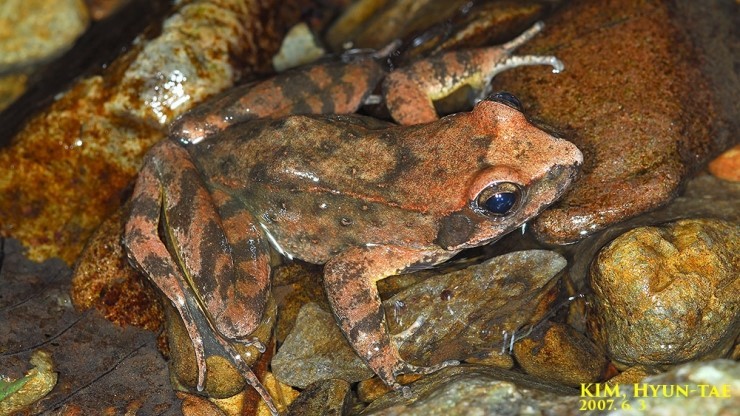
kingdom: Animalia
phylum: Chordata
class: Amphibia
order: Anura
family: Ranidae
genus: Rana
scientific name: Rana huanrenensis
